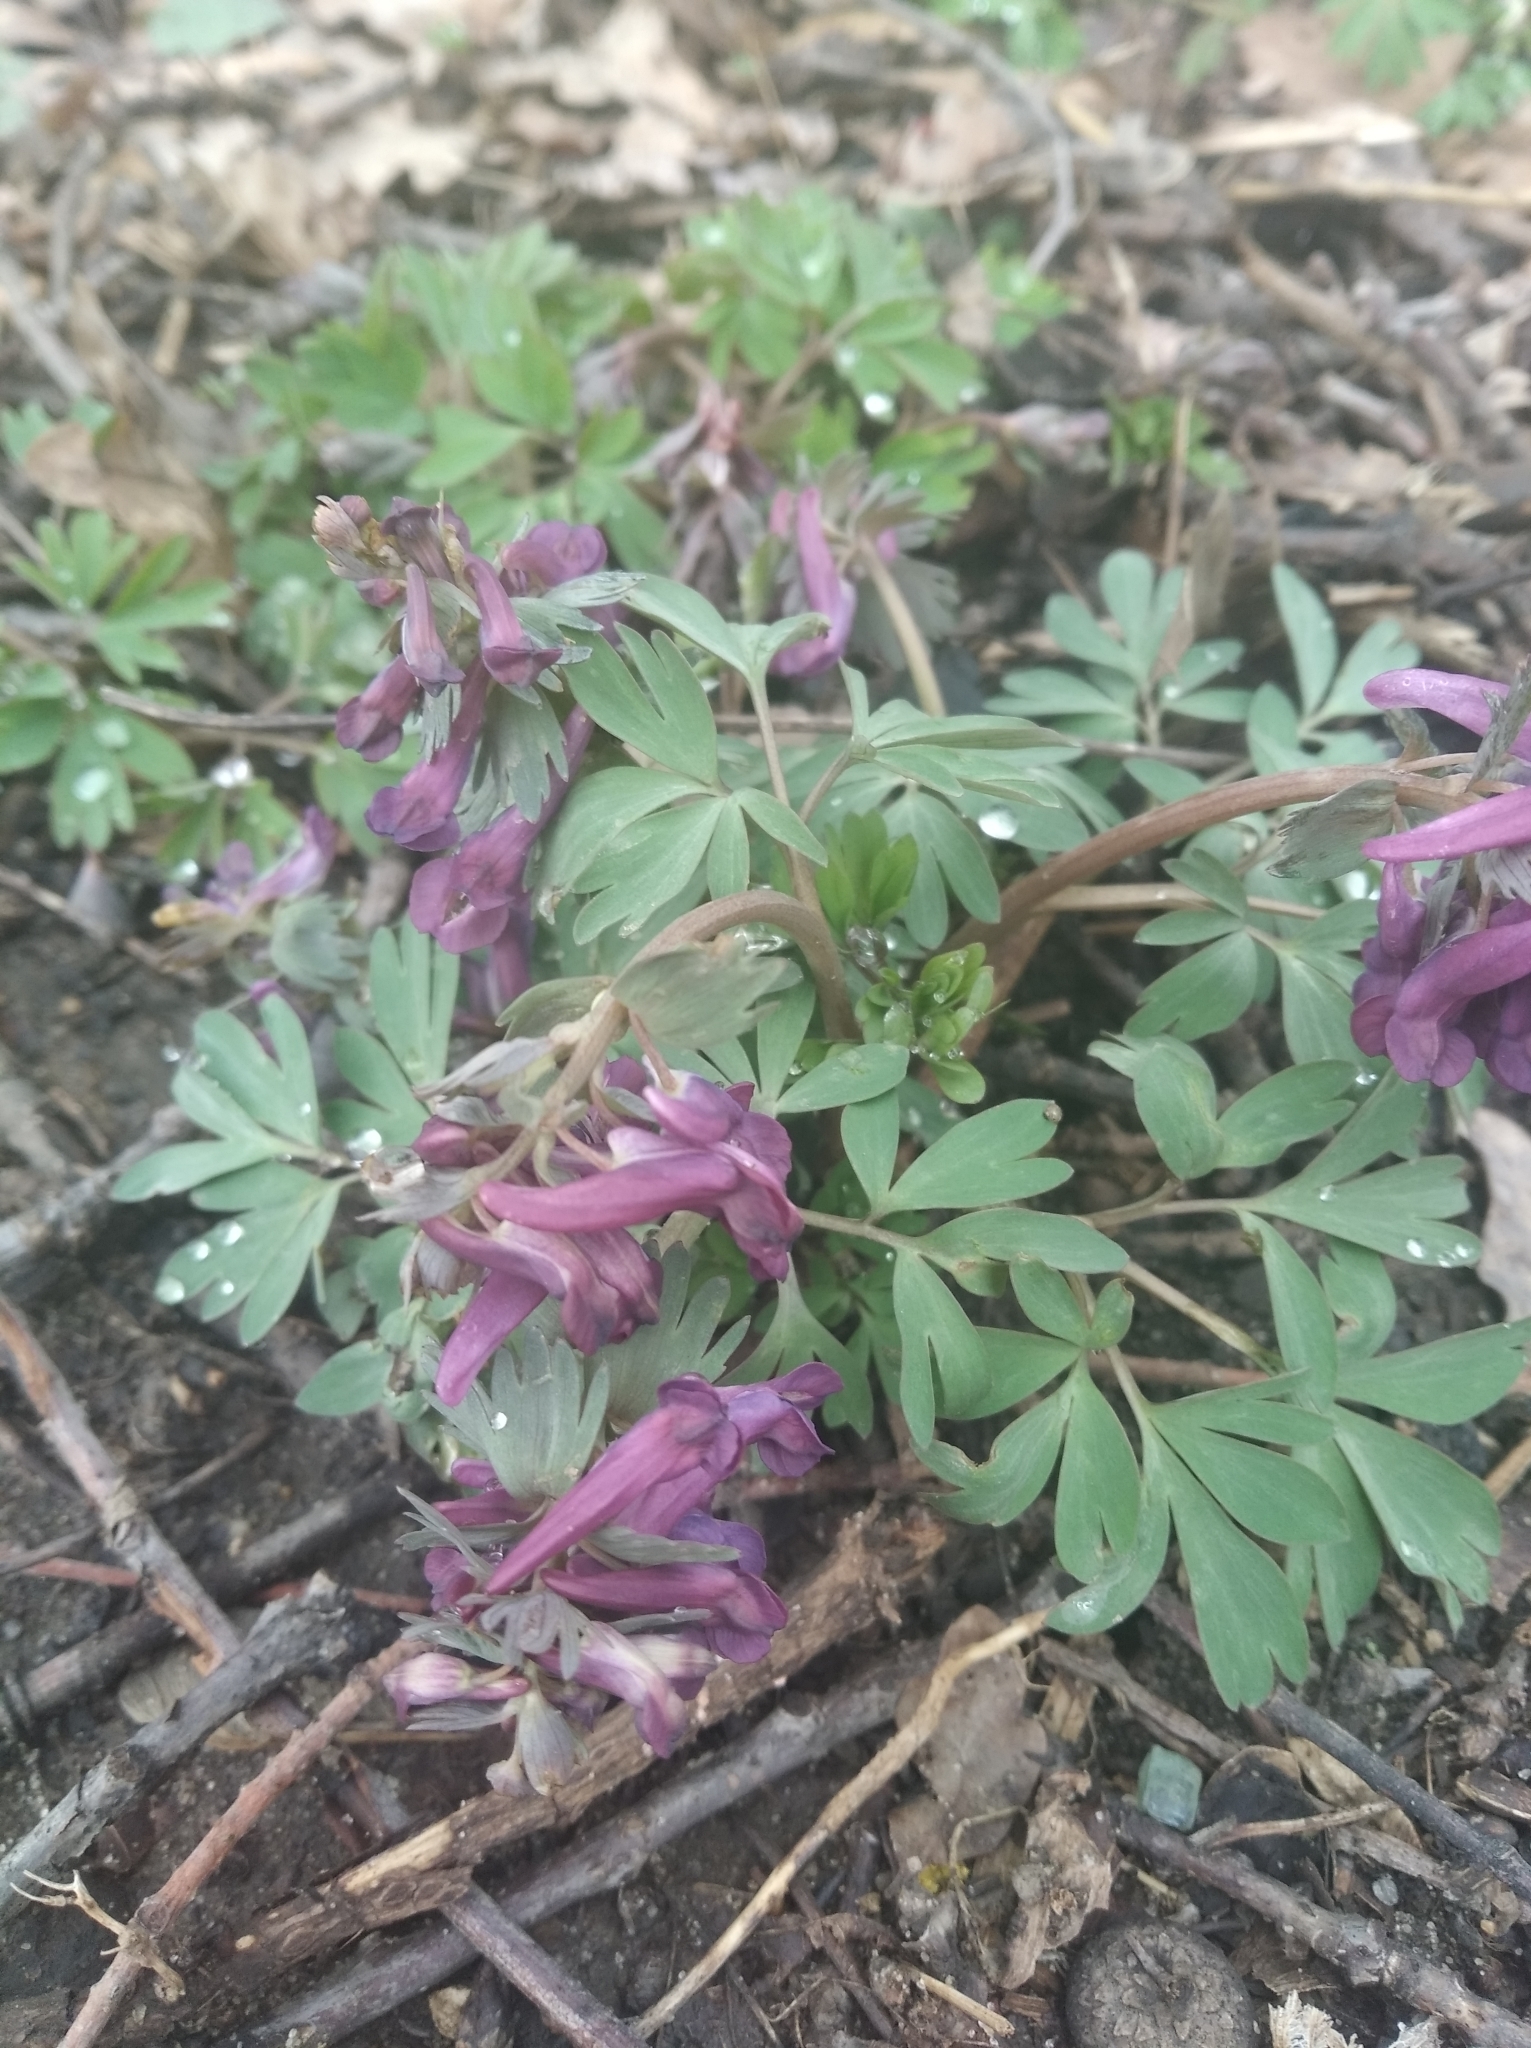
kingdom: Plantae
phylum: Tracheophyta
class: Magnoliopsida
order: Ranunculales
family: Papaveraceae
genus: Corydalis
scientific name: Corydalis solida
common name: Bird-in-a-bush
